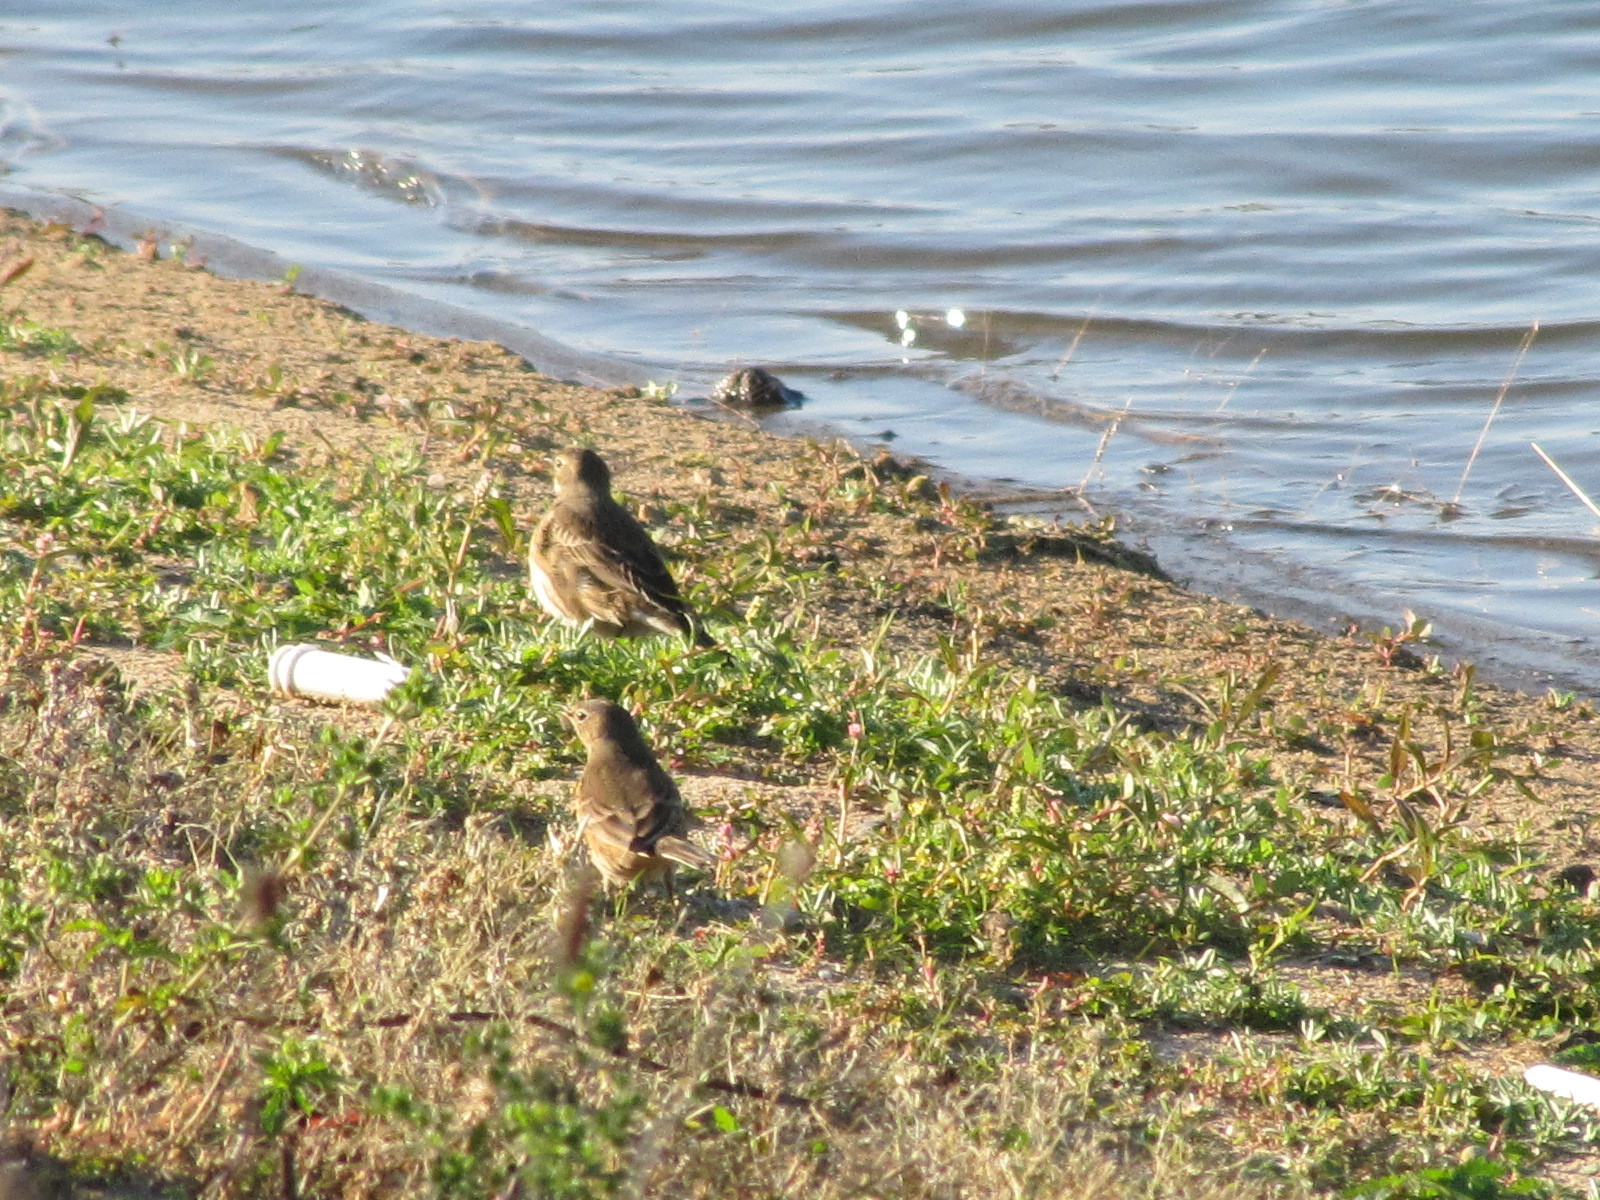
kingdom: Animalia
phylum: Chordata
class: Aves
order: Passeriformes
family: Motacillidae
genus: Anthus
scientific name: Anthus rubescens
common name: Buff-bellied pipit
